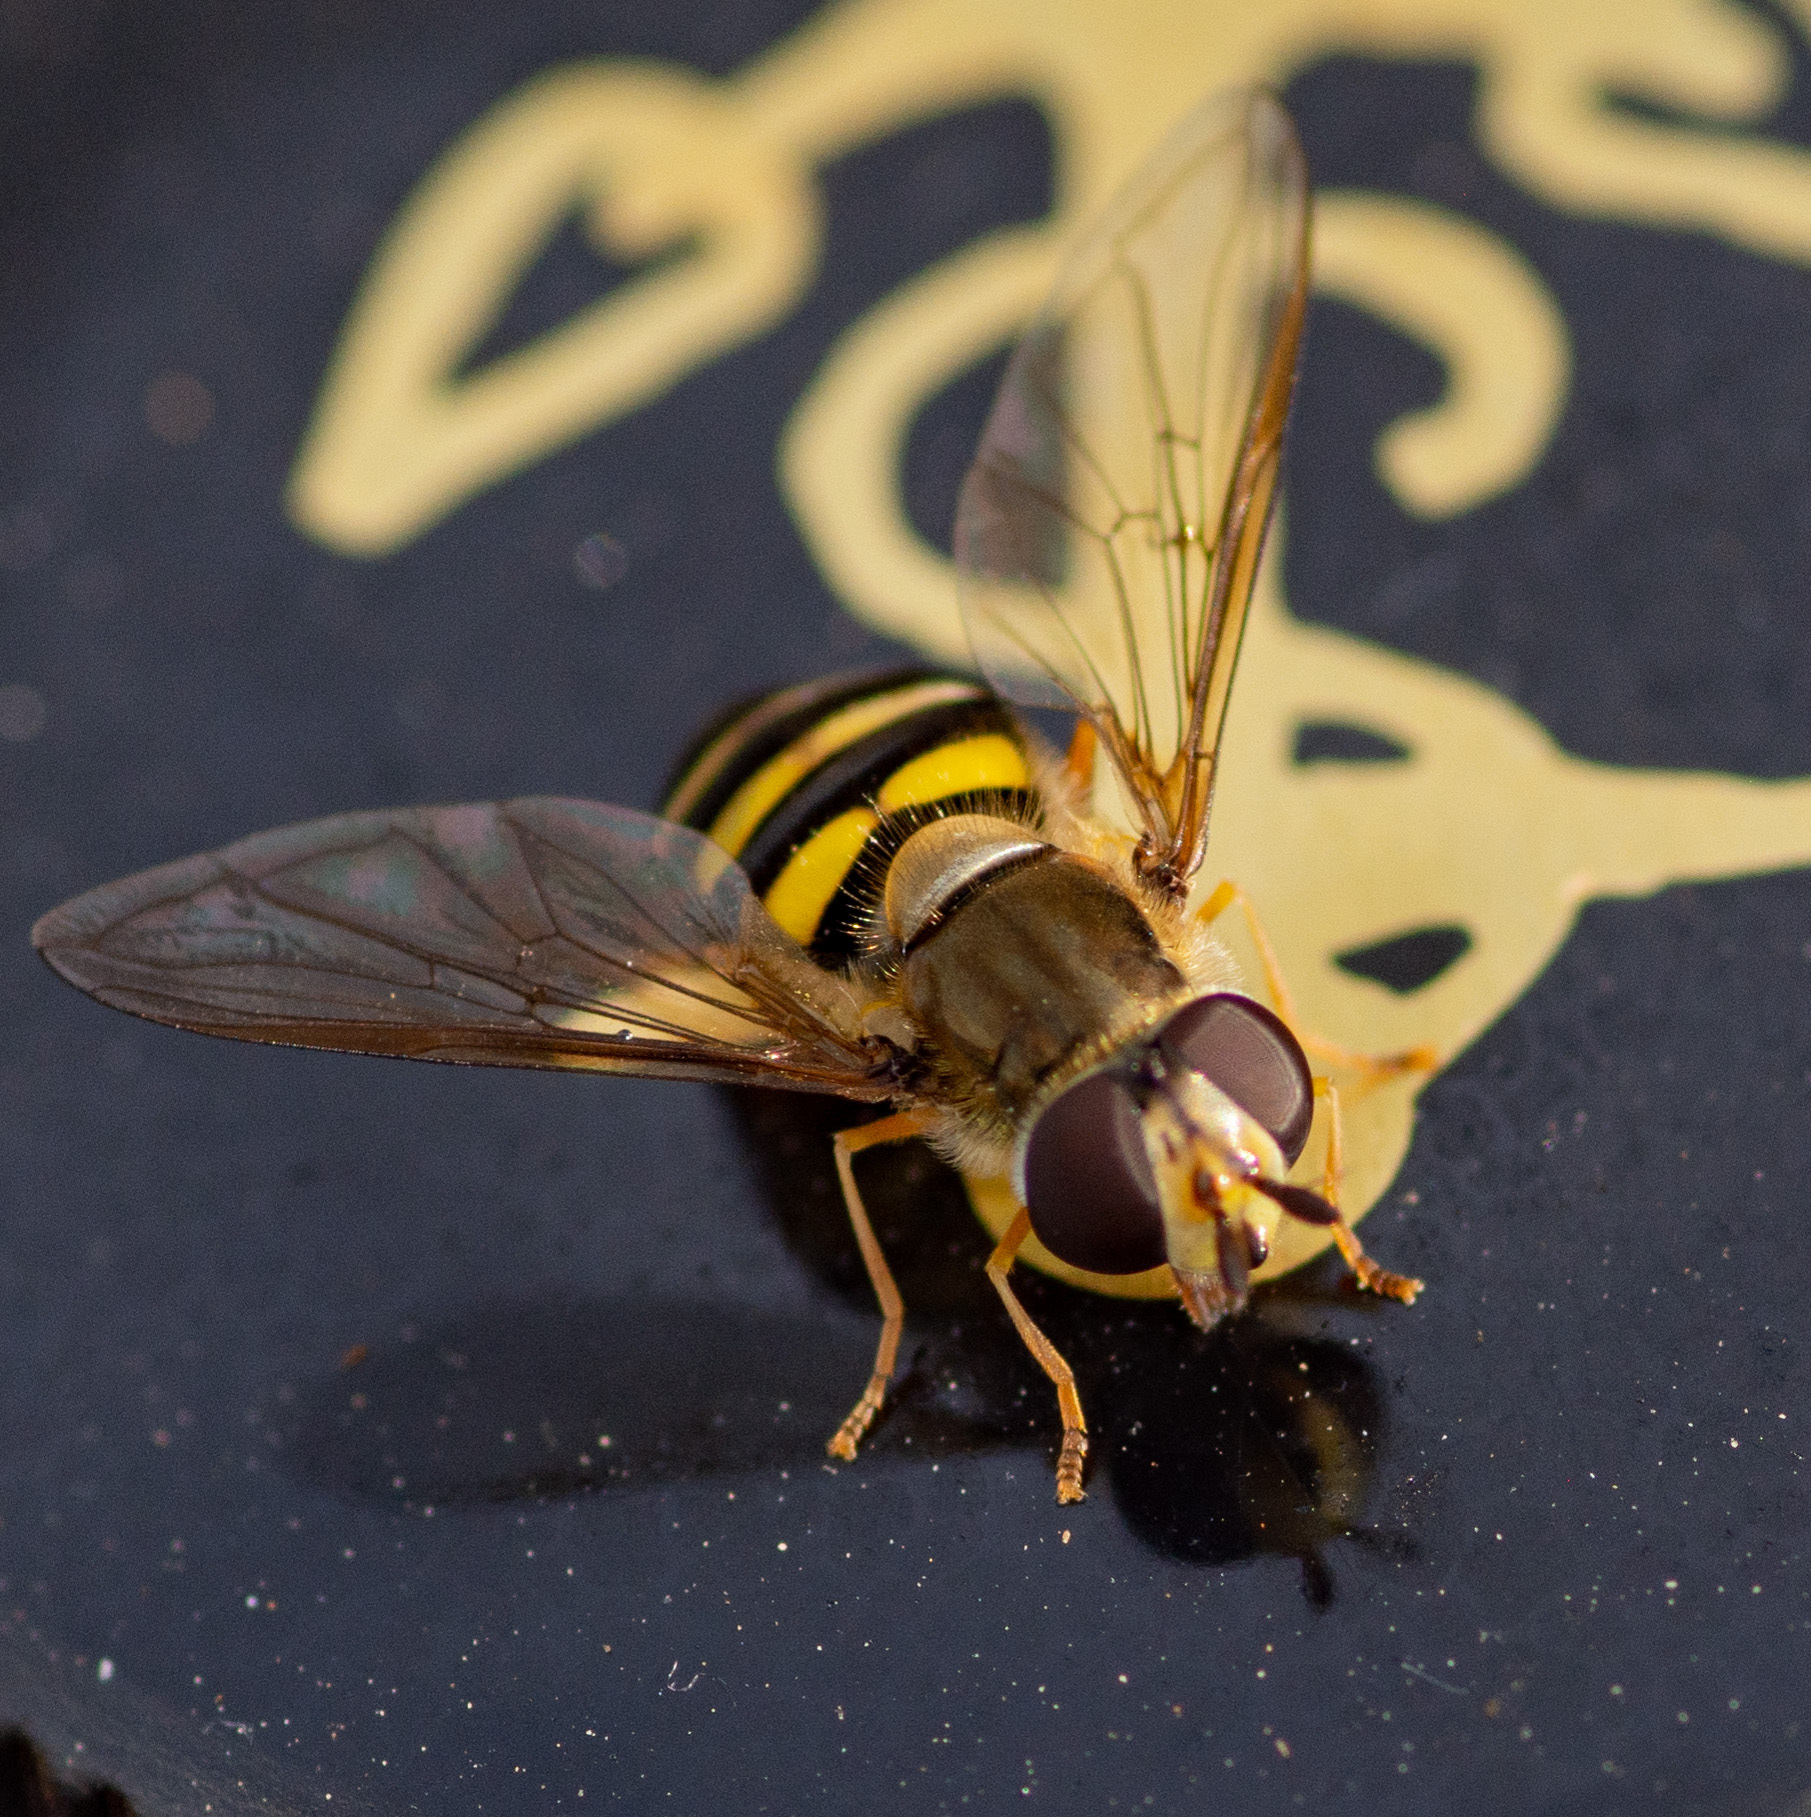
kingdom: Animalia
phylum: Arthropoda
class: Insecta
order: Diptera
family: Syrphidae
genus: Eupeodes
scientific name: Eupeodes
